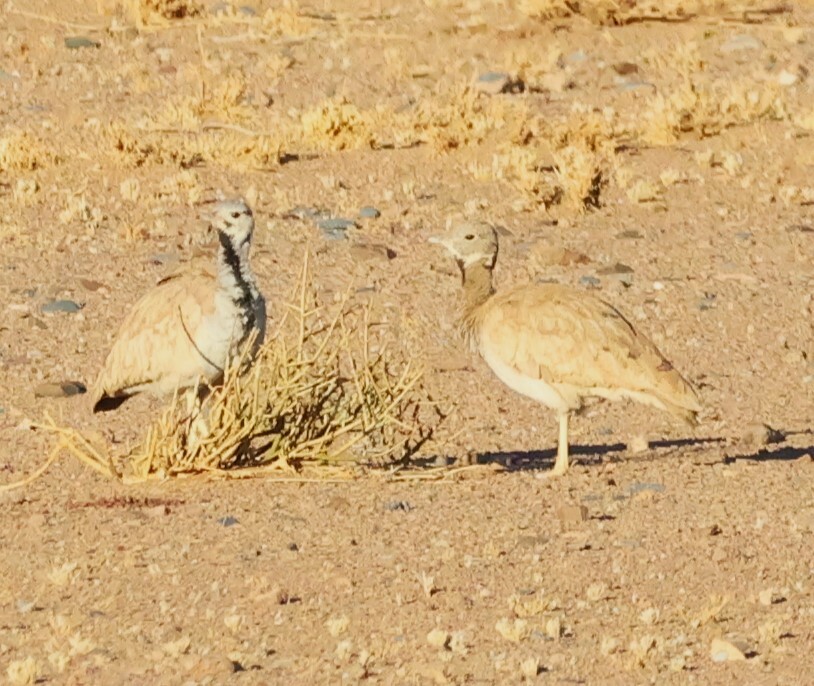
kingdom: Animalia
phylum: Chordata
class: Aves
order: Otidiformes
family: Otididae
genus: Heterotetrax
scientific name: Heterotetrax rueppelii
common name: Rüppell's korhaan
